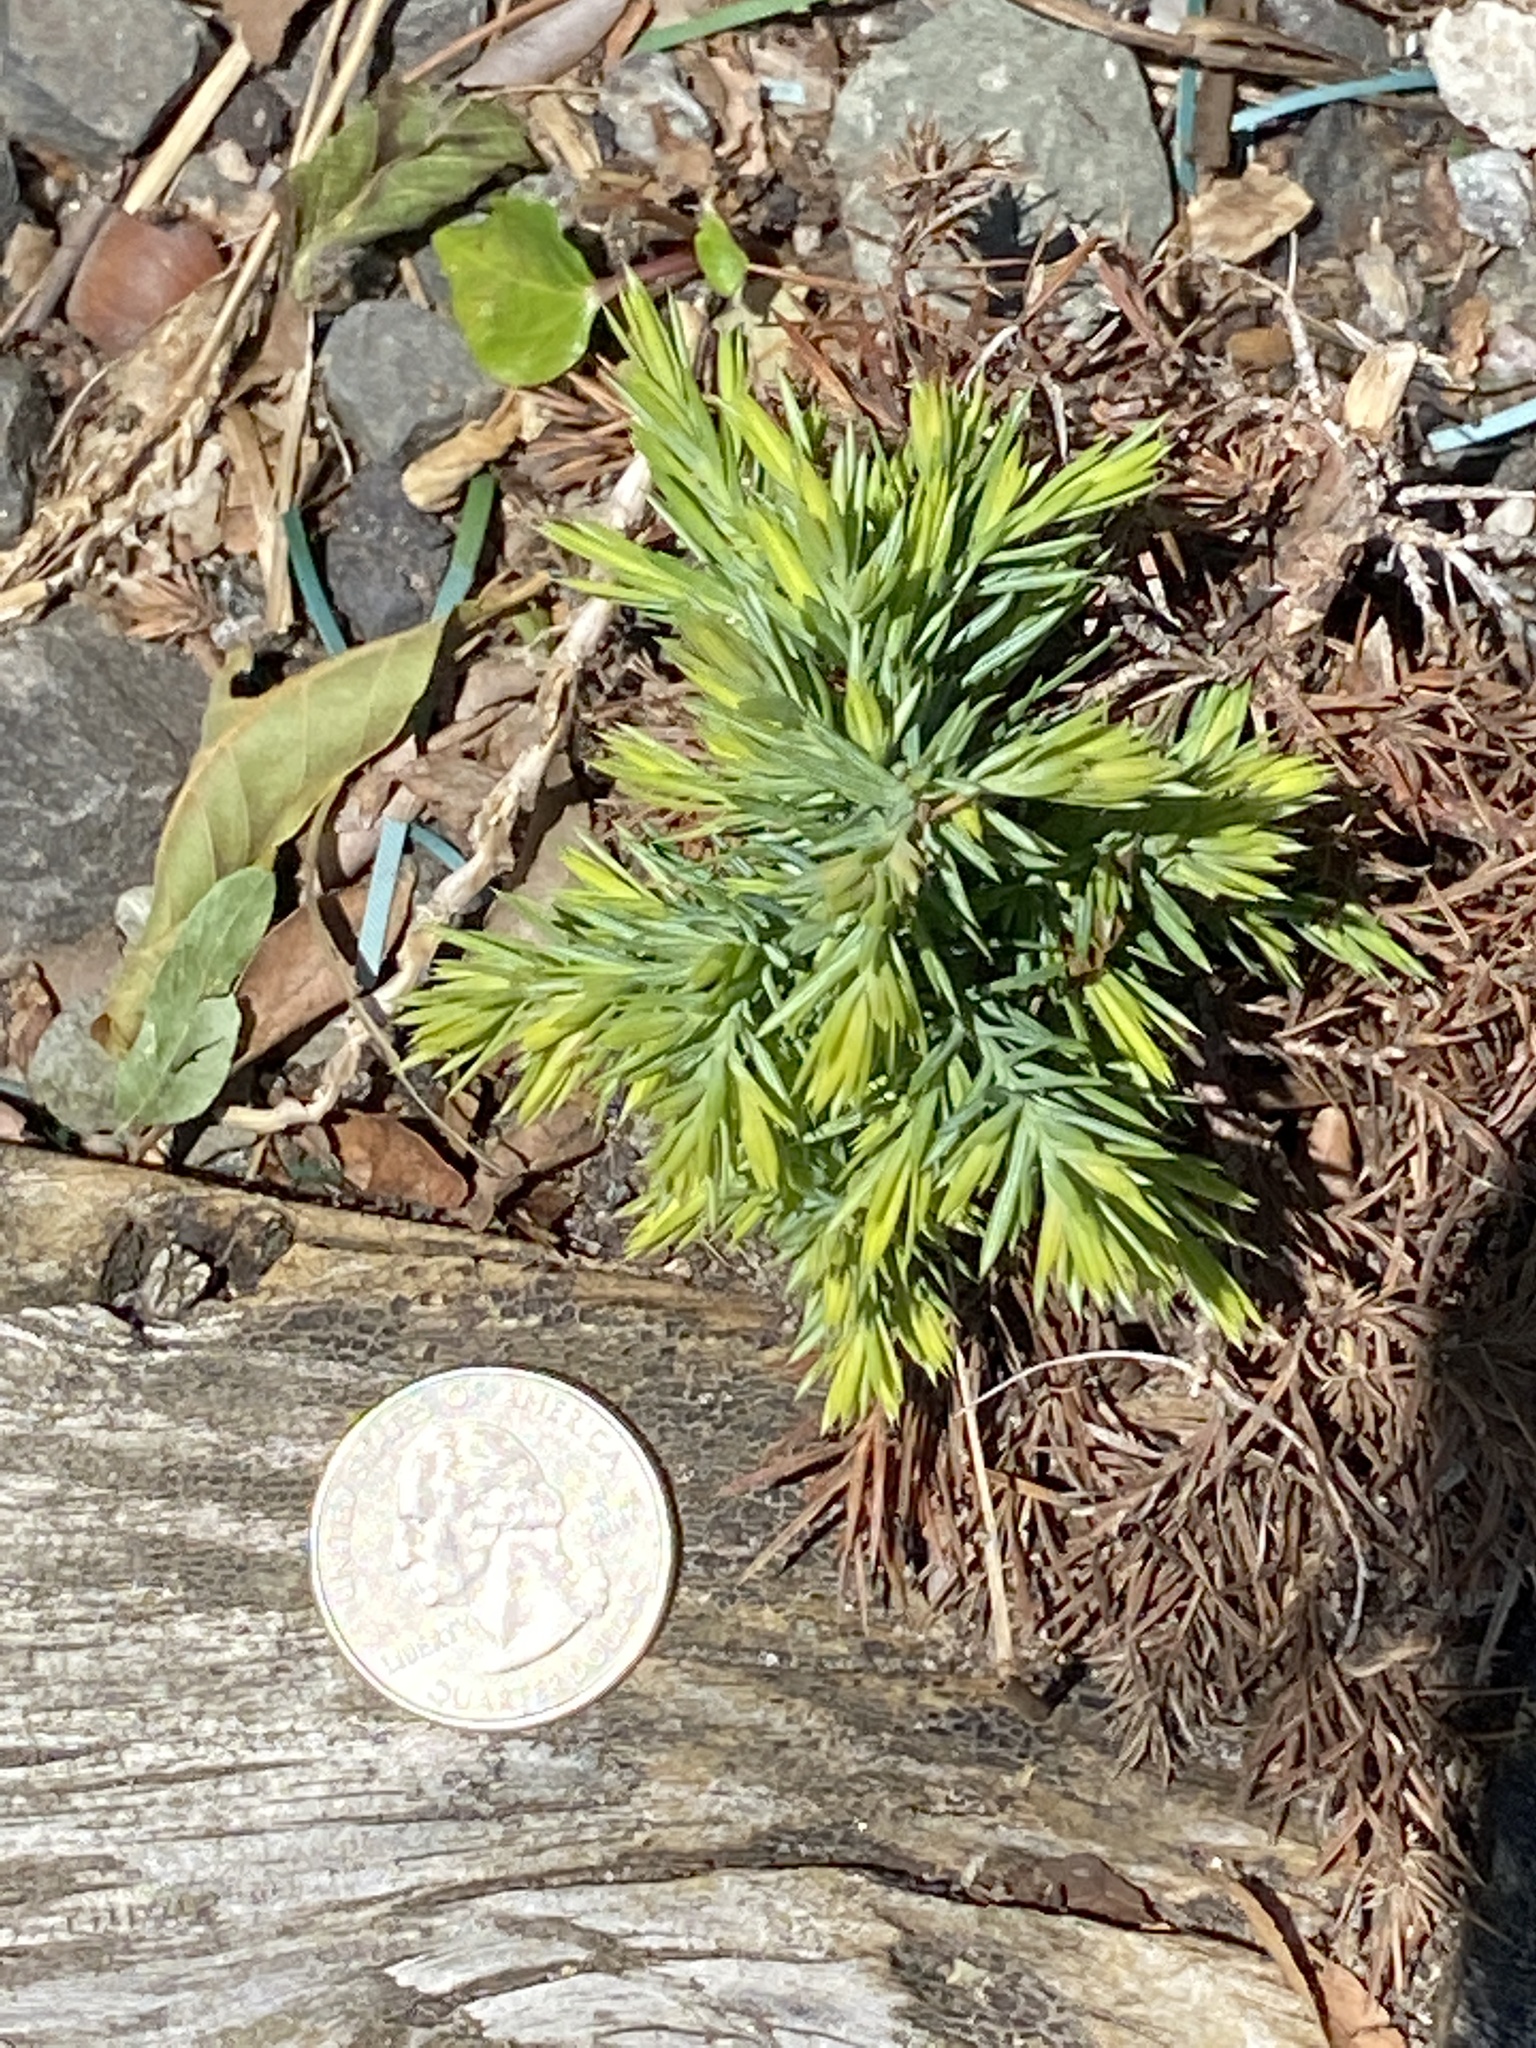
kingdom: Plantae
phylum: Tracheophyta
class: Pinopsida
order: Pinales
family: Cupressaceae
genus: Juniperus
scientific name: Juniperus virginiana
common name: Red juniper
